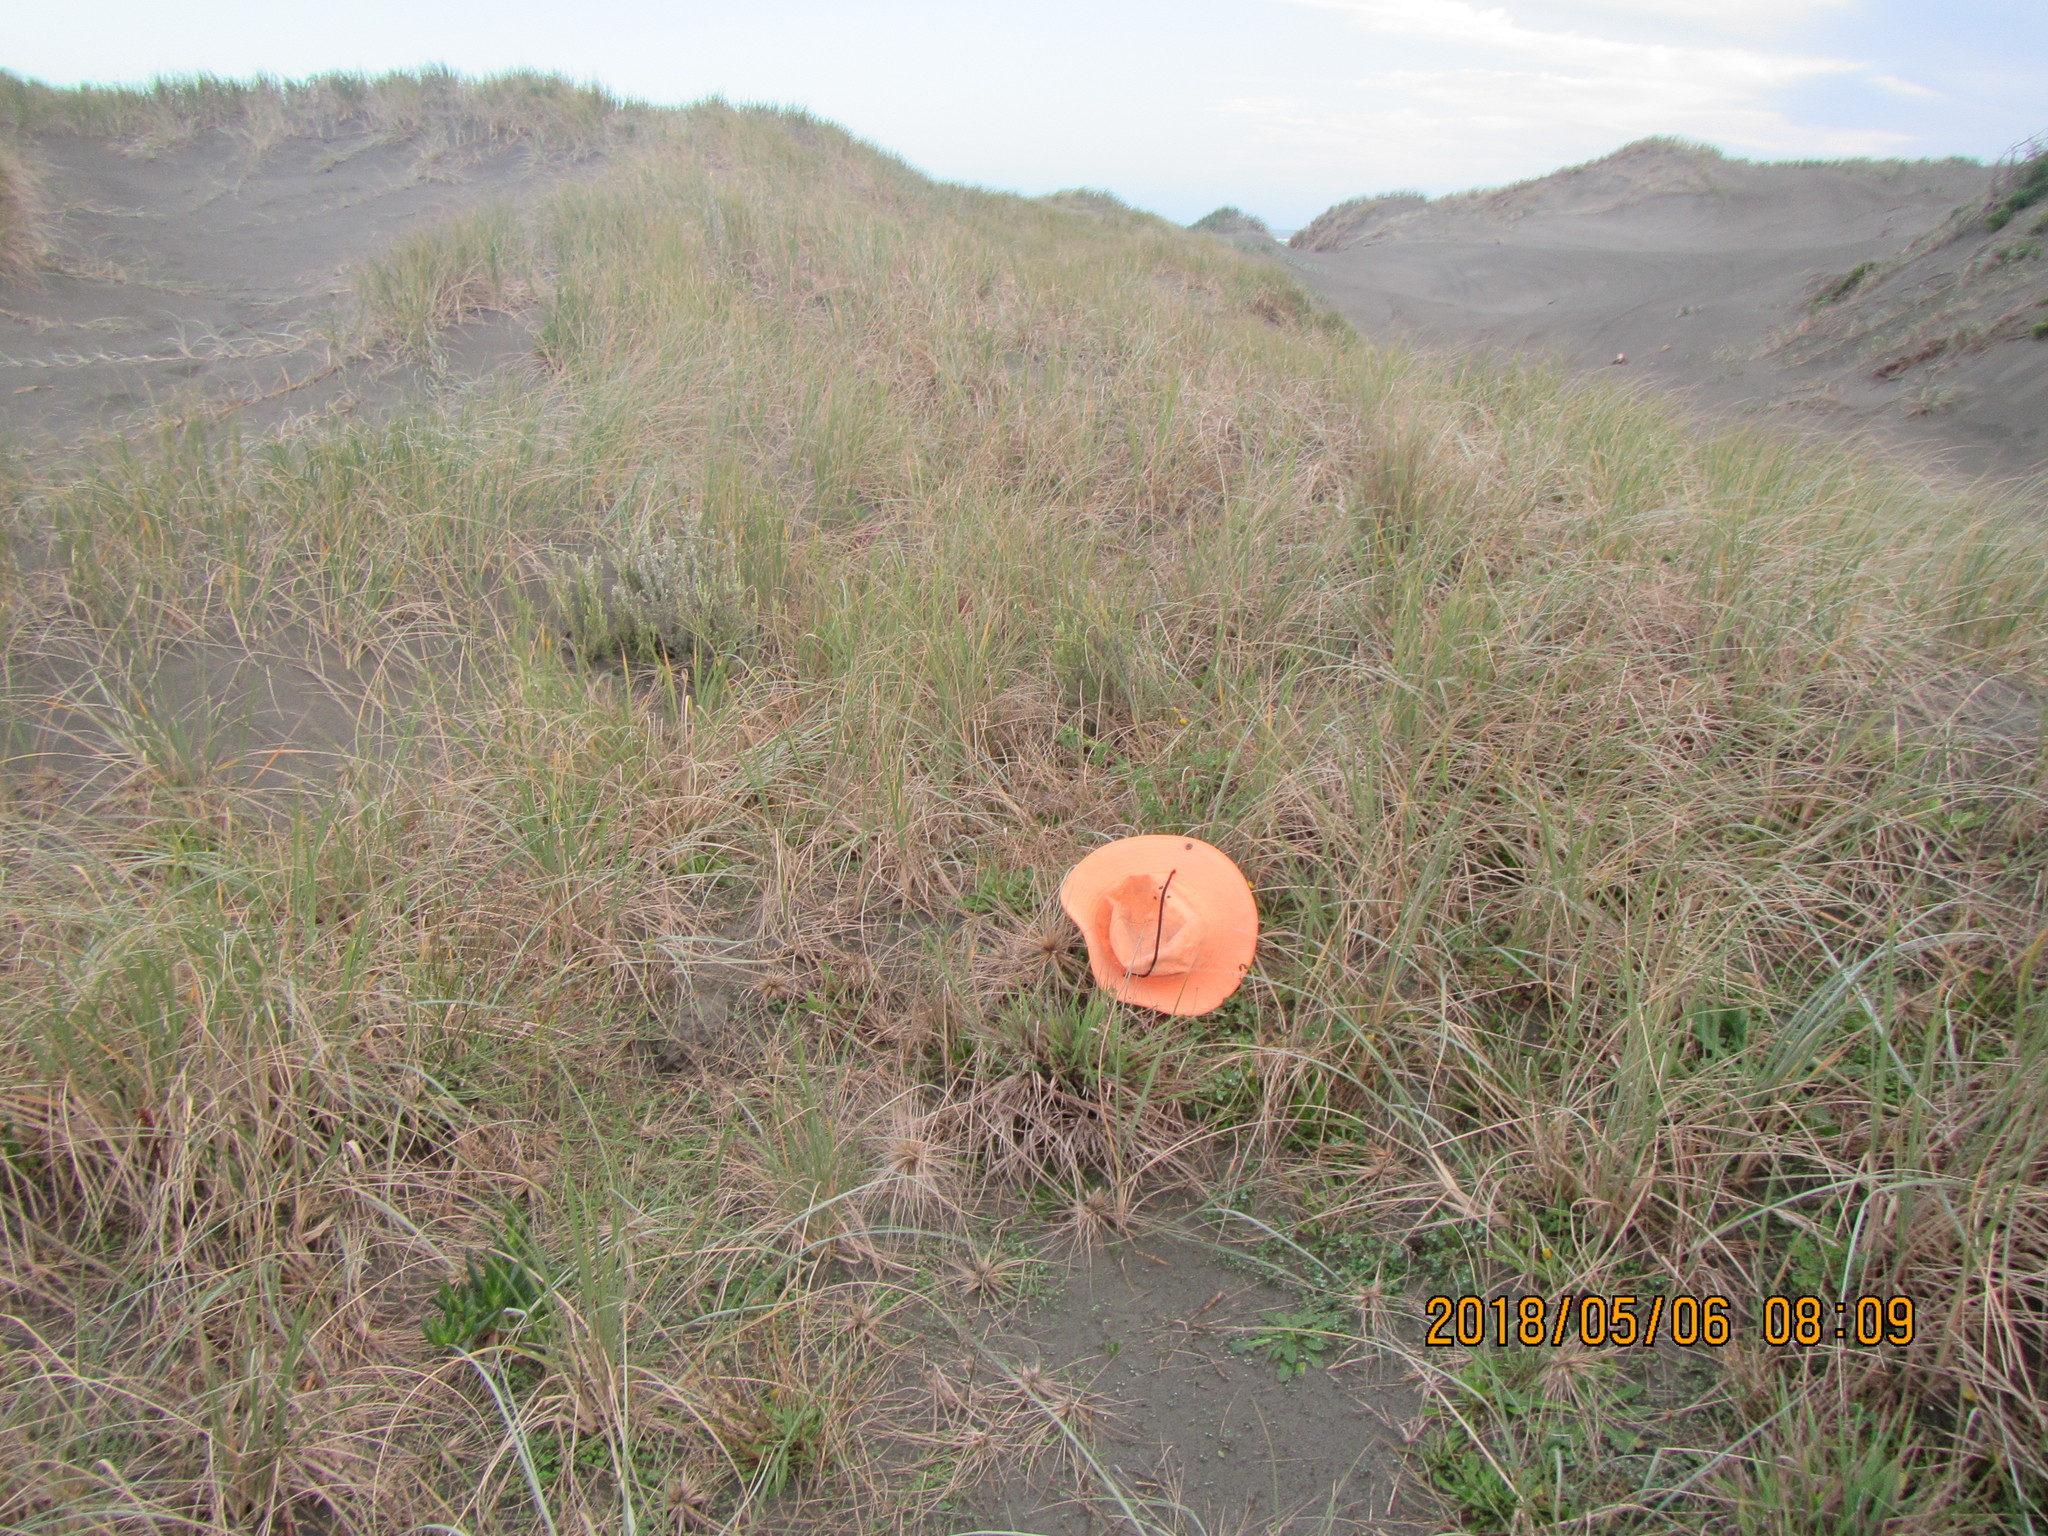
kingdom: Plantae
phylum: Tracheophyta
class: Magnoliopsida
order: Fabales
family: Fabaceae
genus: Melilotus
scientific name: Melilotus indicus
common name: Small melilot
